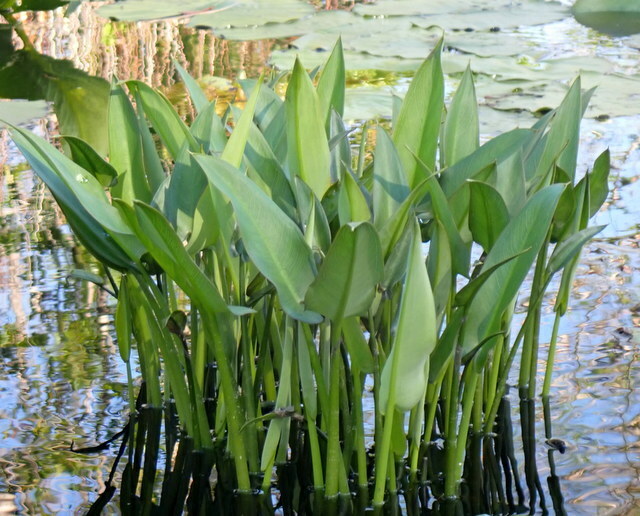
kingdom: Plantae
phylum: Tracheophyta
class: Liliopsida
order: Alismatales
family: Araceae
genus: Peltandra
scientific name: Peltandra virginica
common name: Arrow arum
